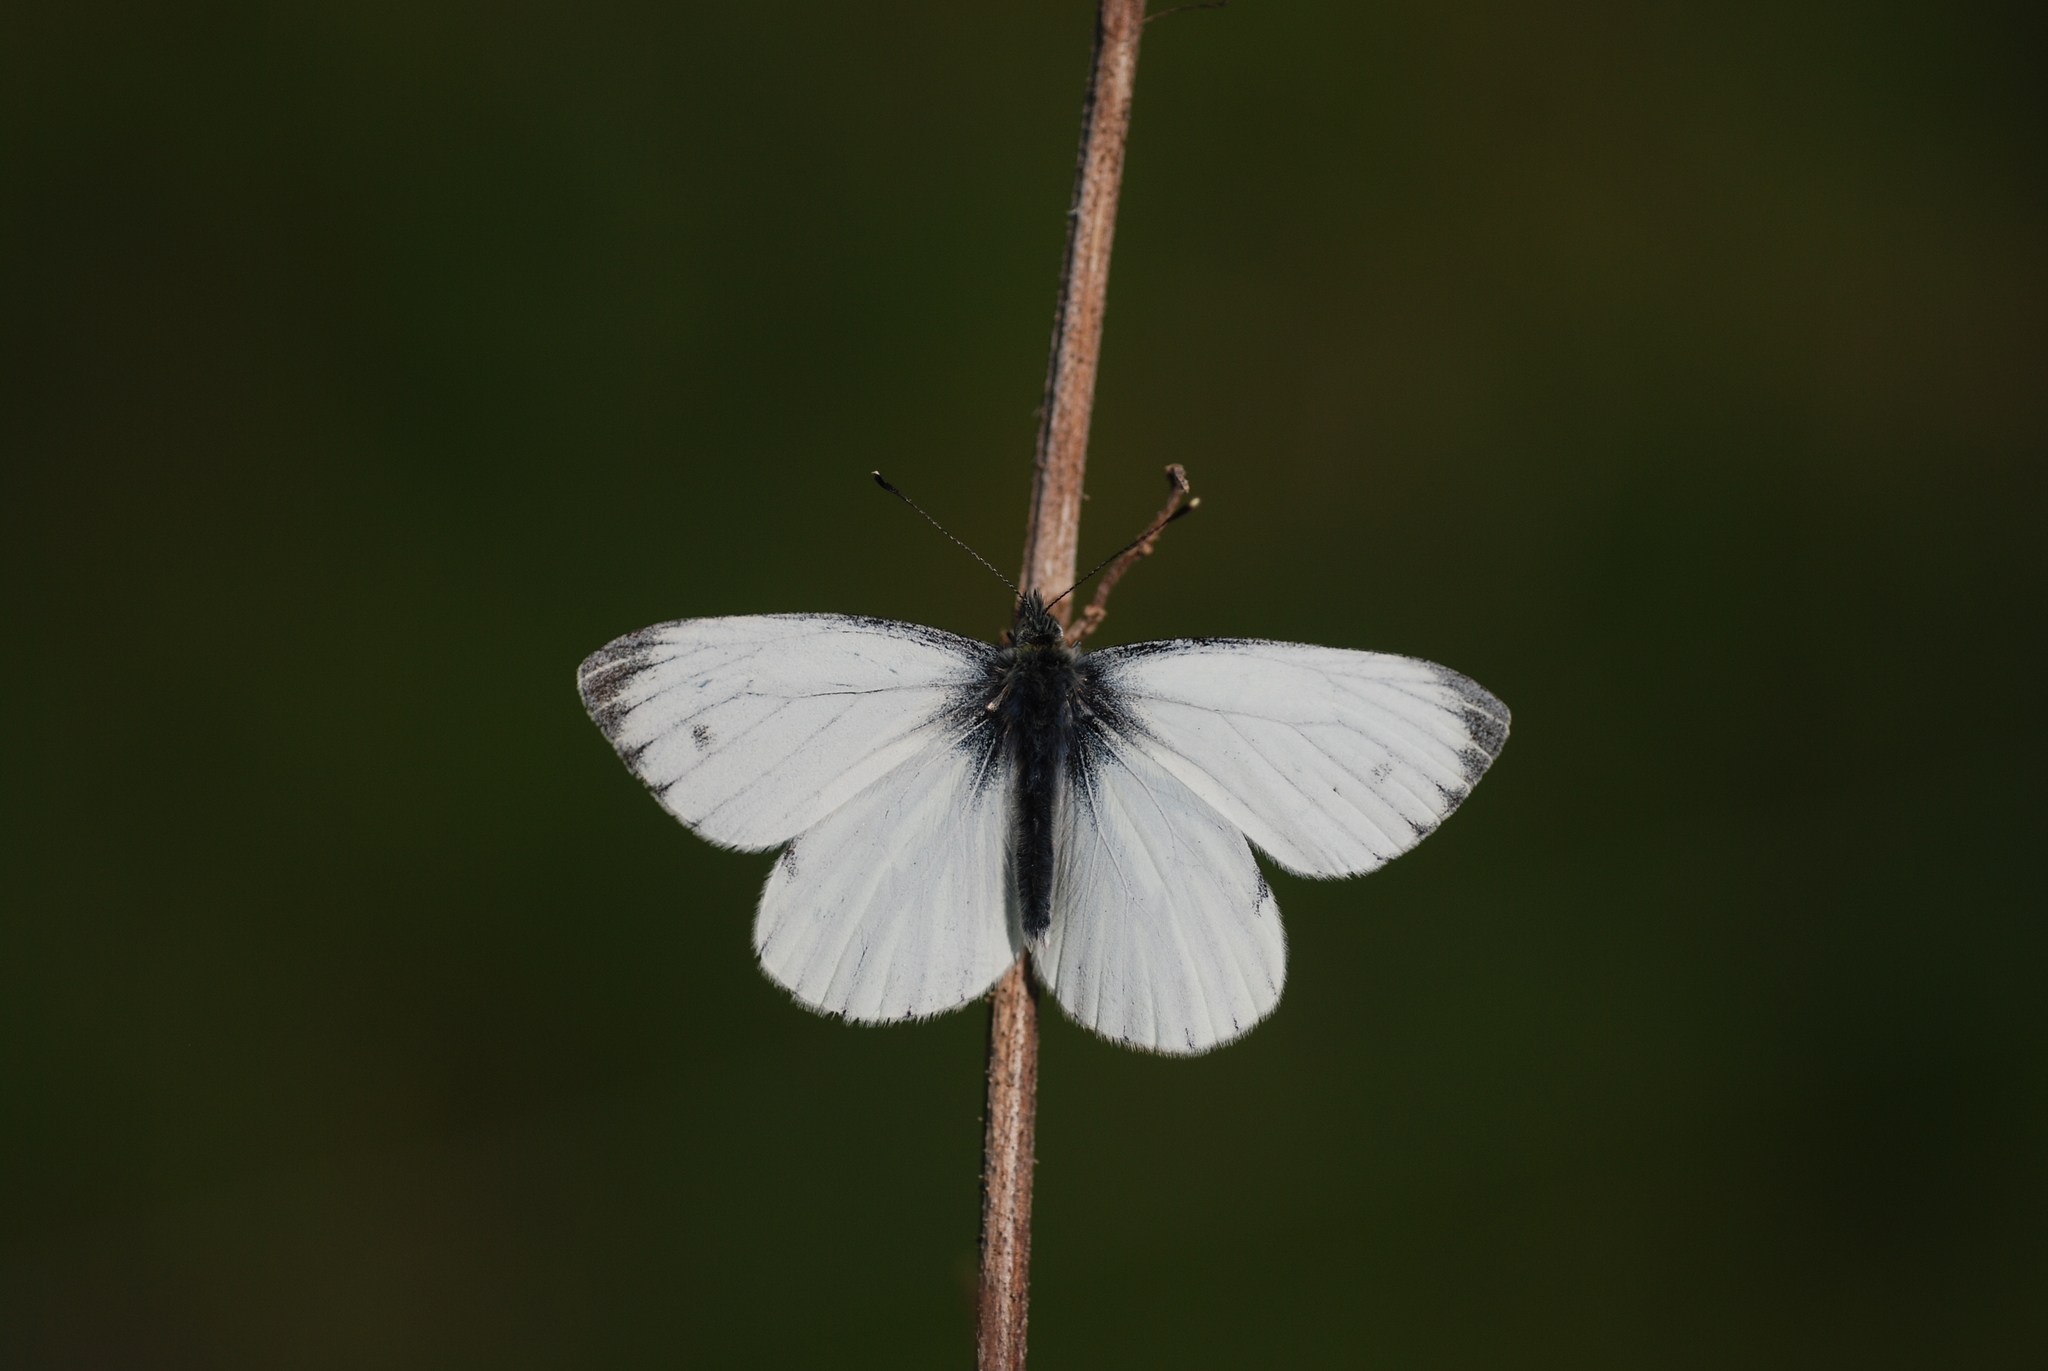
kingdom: Animalia
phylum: Arthropoda
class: Insecta
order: Lepidoptera
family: Pieridae
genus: Pieris
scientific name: Pieris napi
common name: Green-veined white
